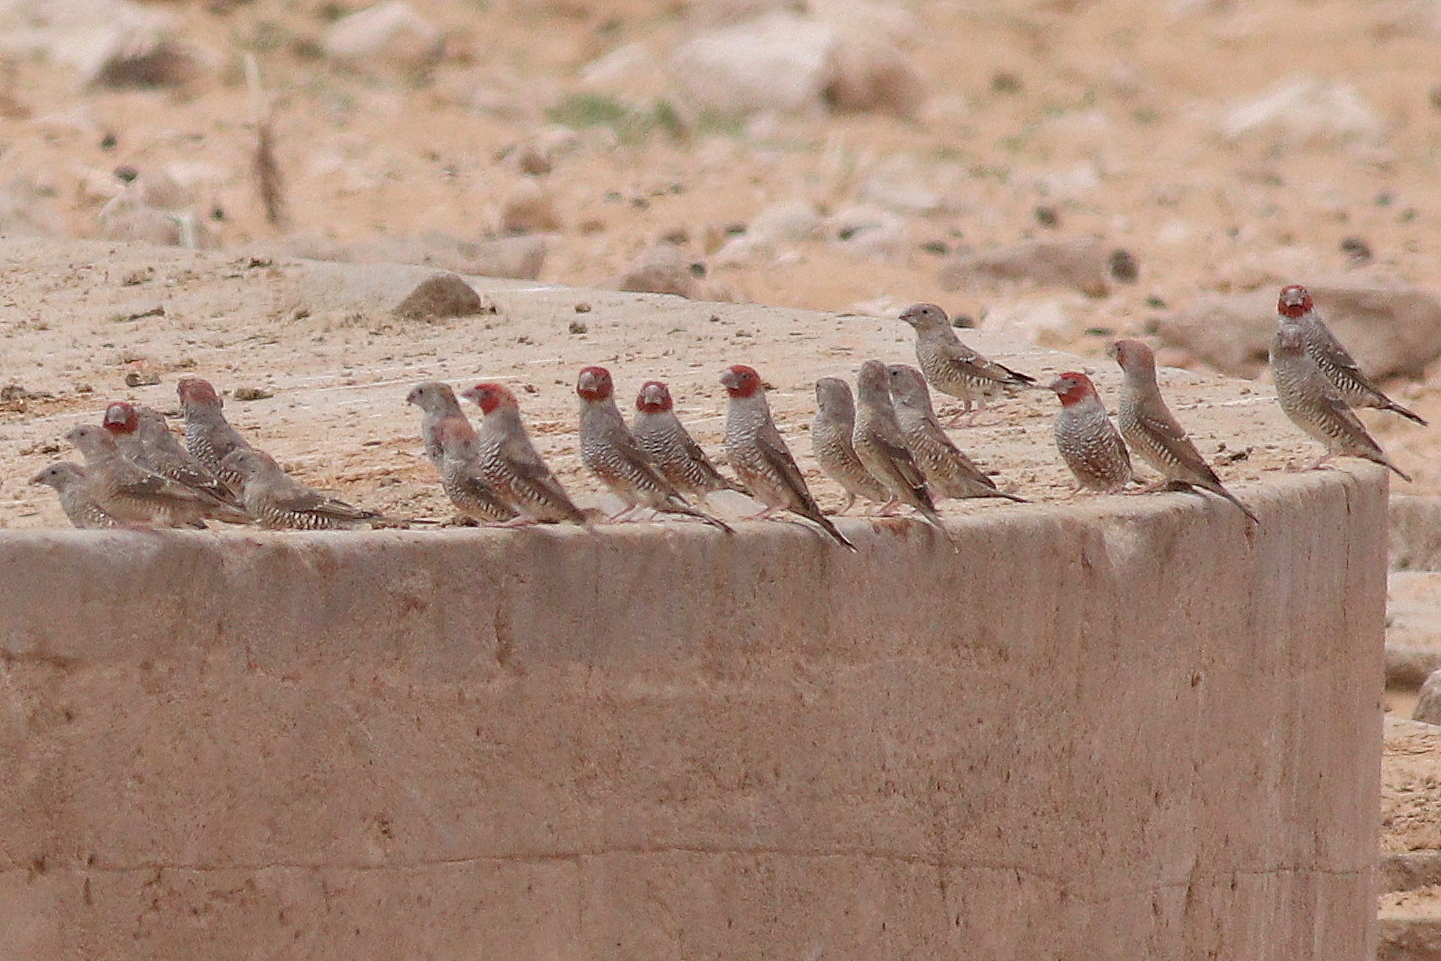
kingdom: Animalia
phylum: Chordata
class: Aves
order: Passeriformes
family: Estrildidae
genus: Amadina
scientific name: Amadina erythrocephala
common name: Red-headed finch
